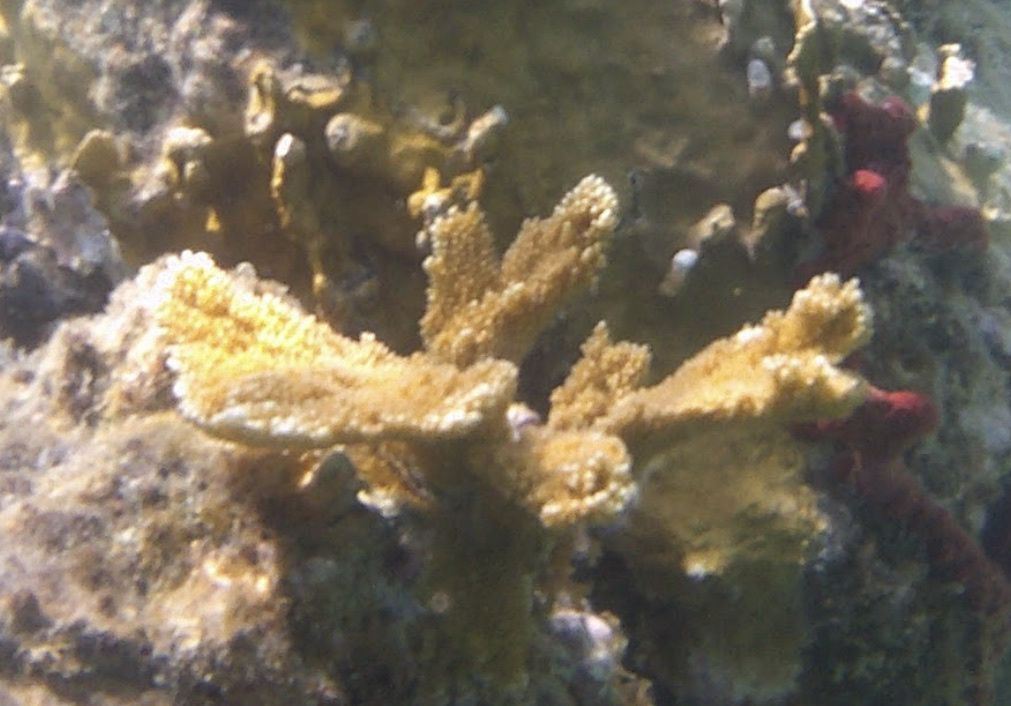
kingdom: Animalia
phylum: Cnidaria
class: Anthozoa
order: Scleractinia
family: Acroporidae
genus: Acropora
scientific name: Acropora palmata
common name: Elkhorn coral
